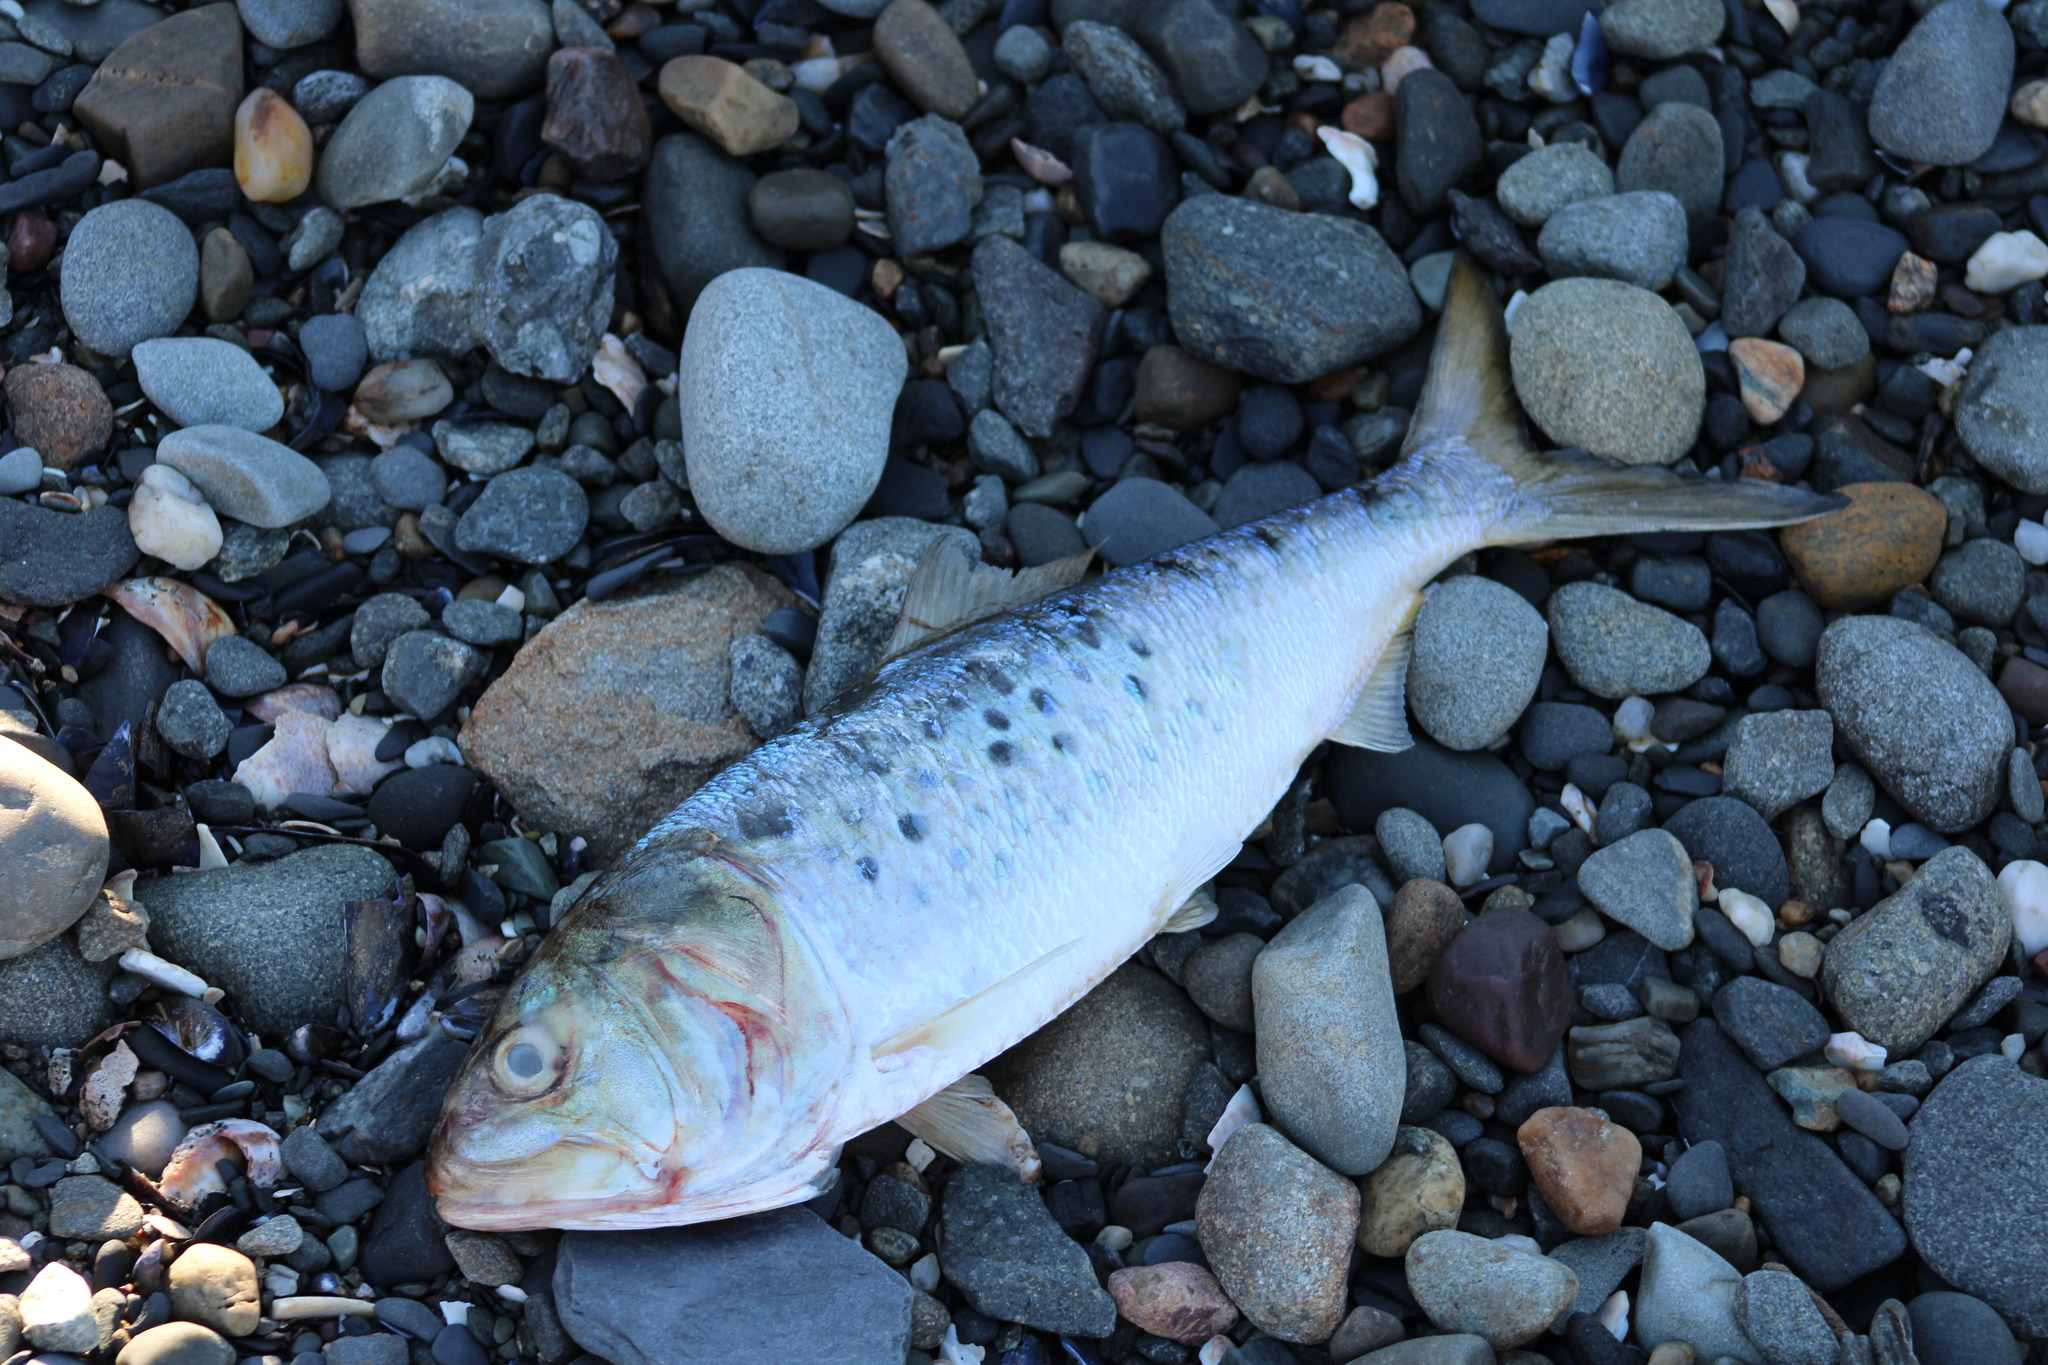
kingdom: Animalia
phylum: Chordata
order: Clupeiformes
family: Clupeidae
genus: Brevoortia
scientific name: Brevoortia tyrannus
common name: Atlantic menhaden
